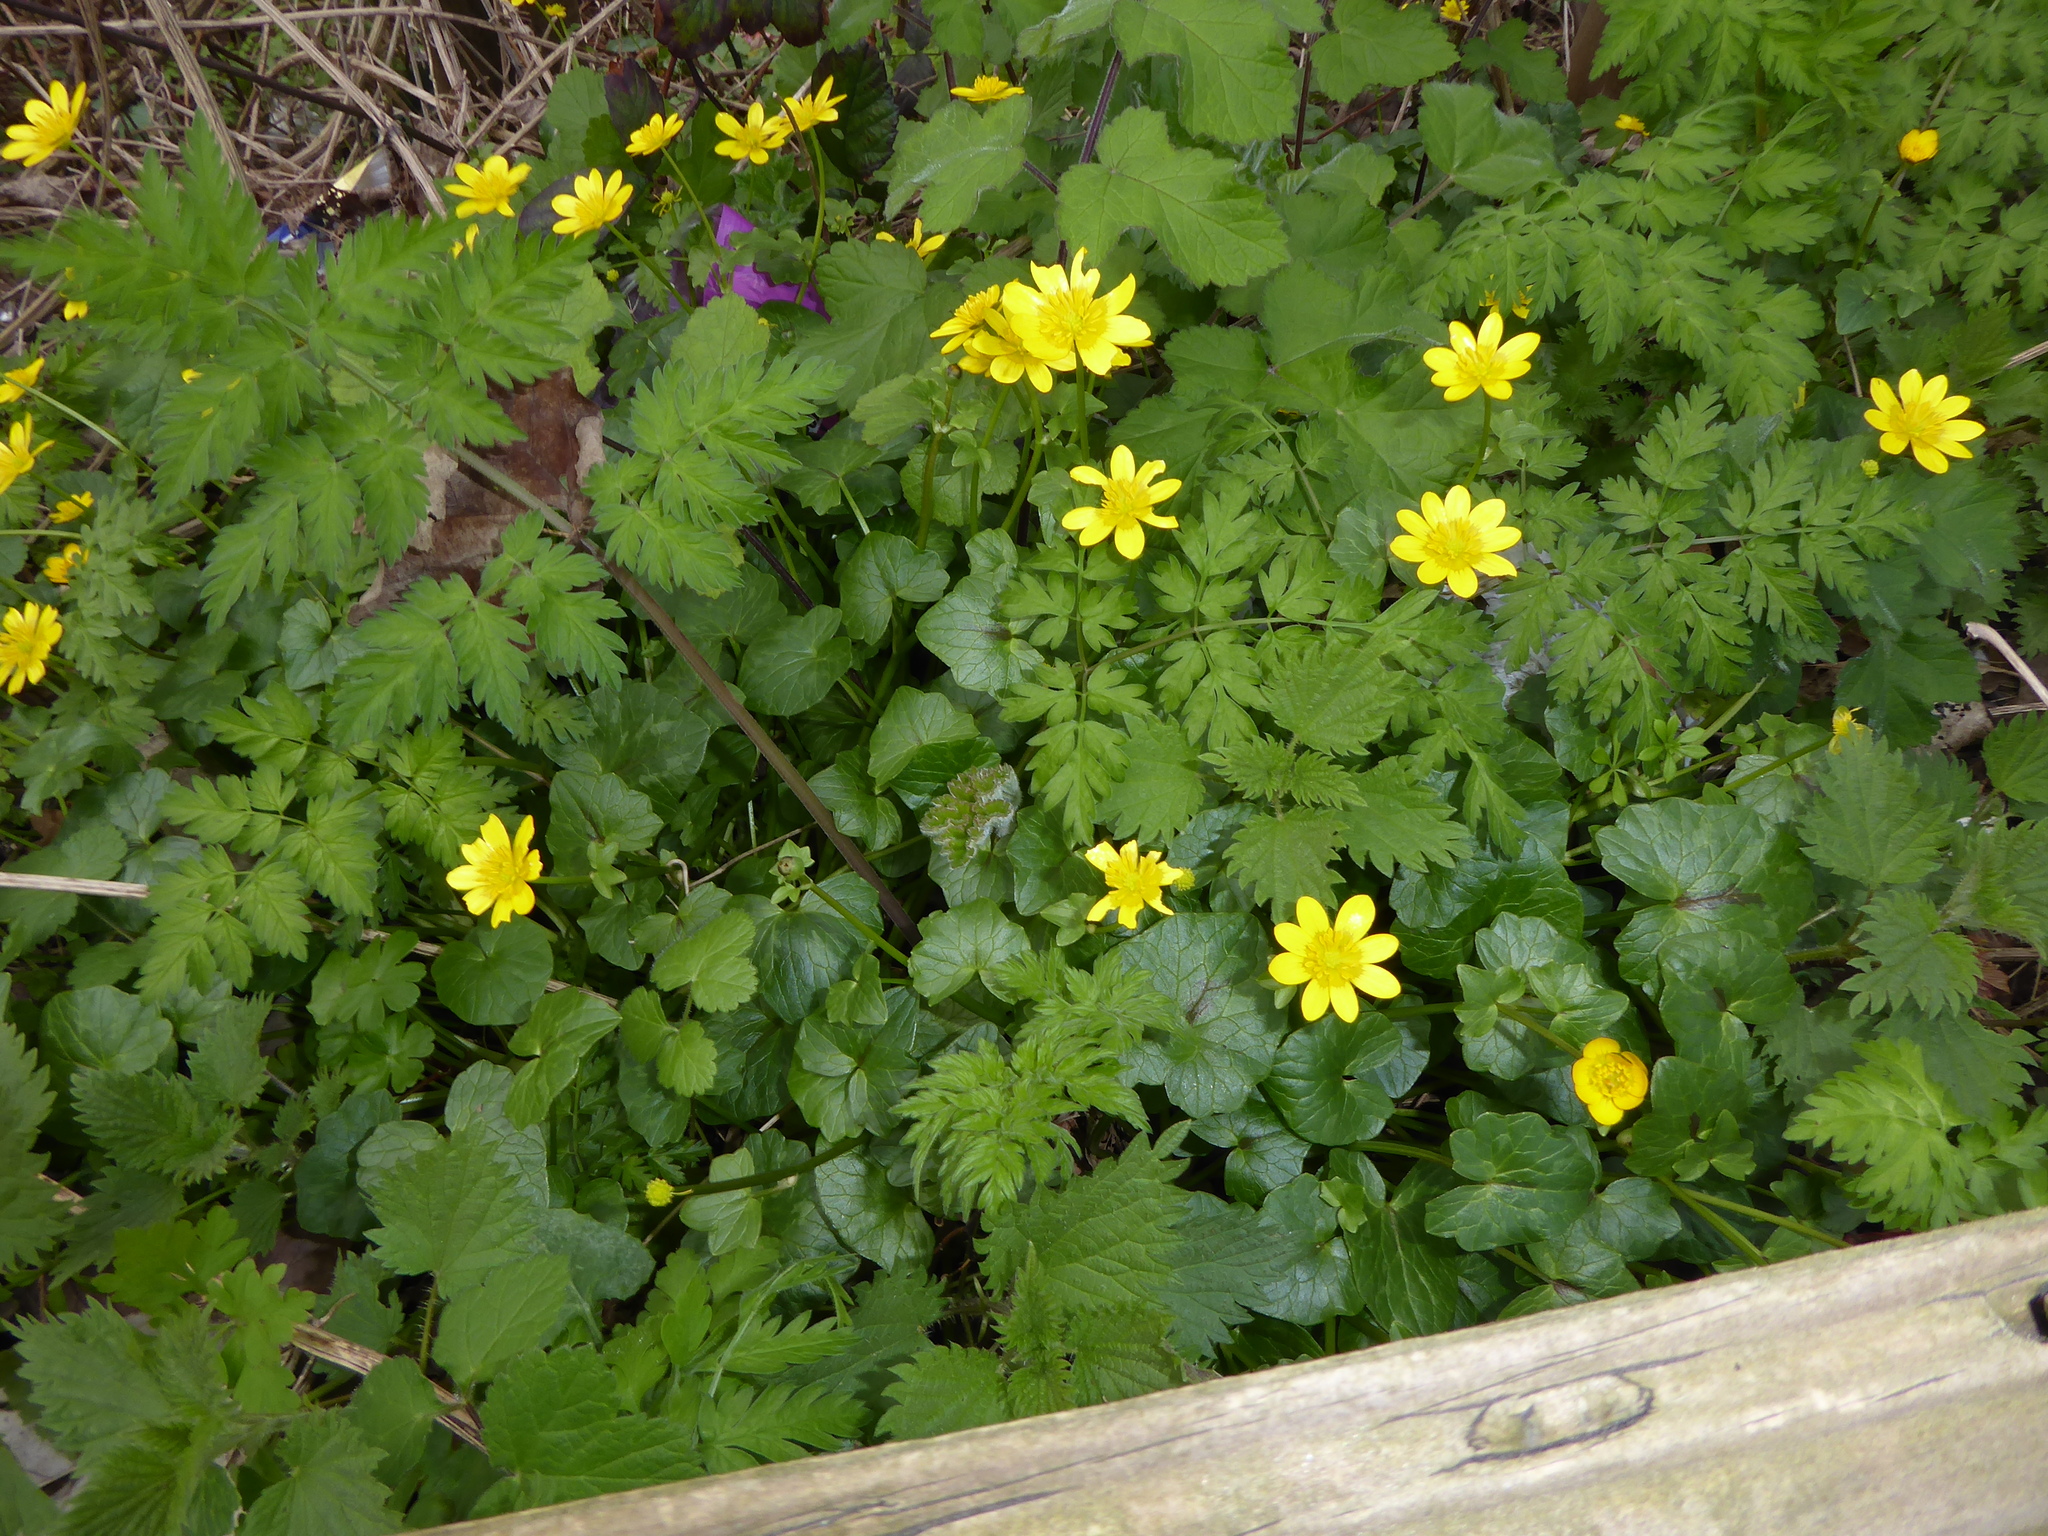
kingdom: Plantae
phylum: Tracheophyta
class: Magnoliopsida
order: Ranunculales
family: Ranunculaceae
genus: Ficaria
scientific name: Ficaria verna
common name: Lesser celandine
